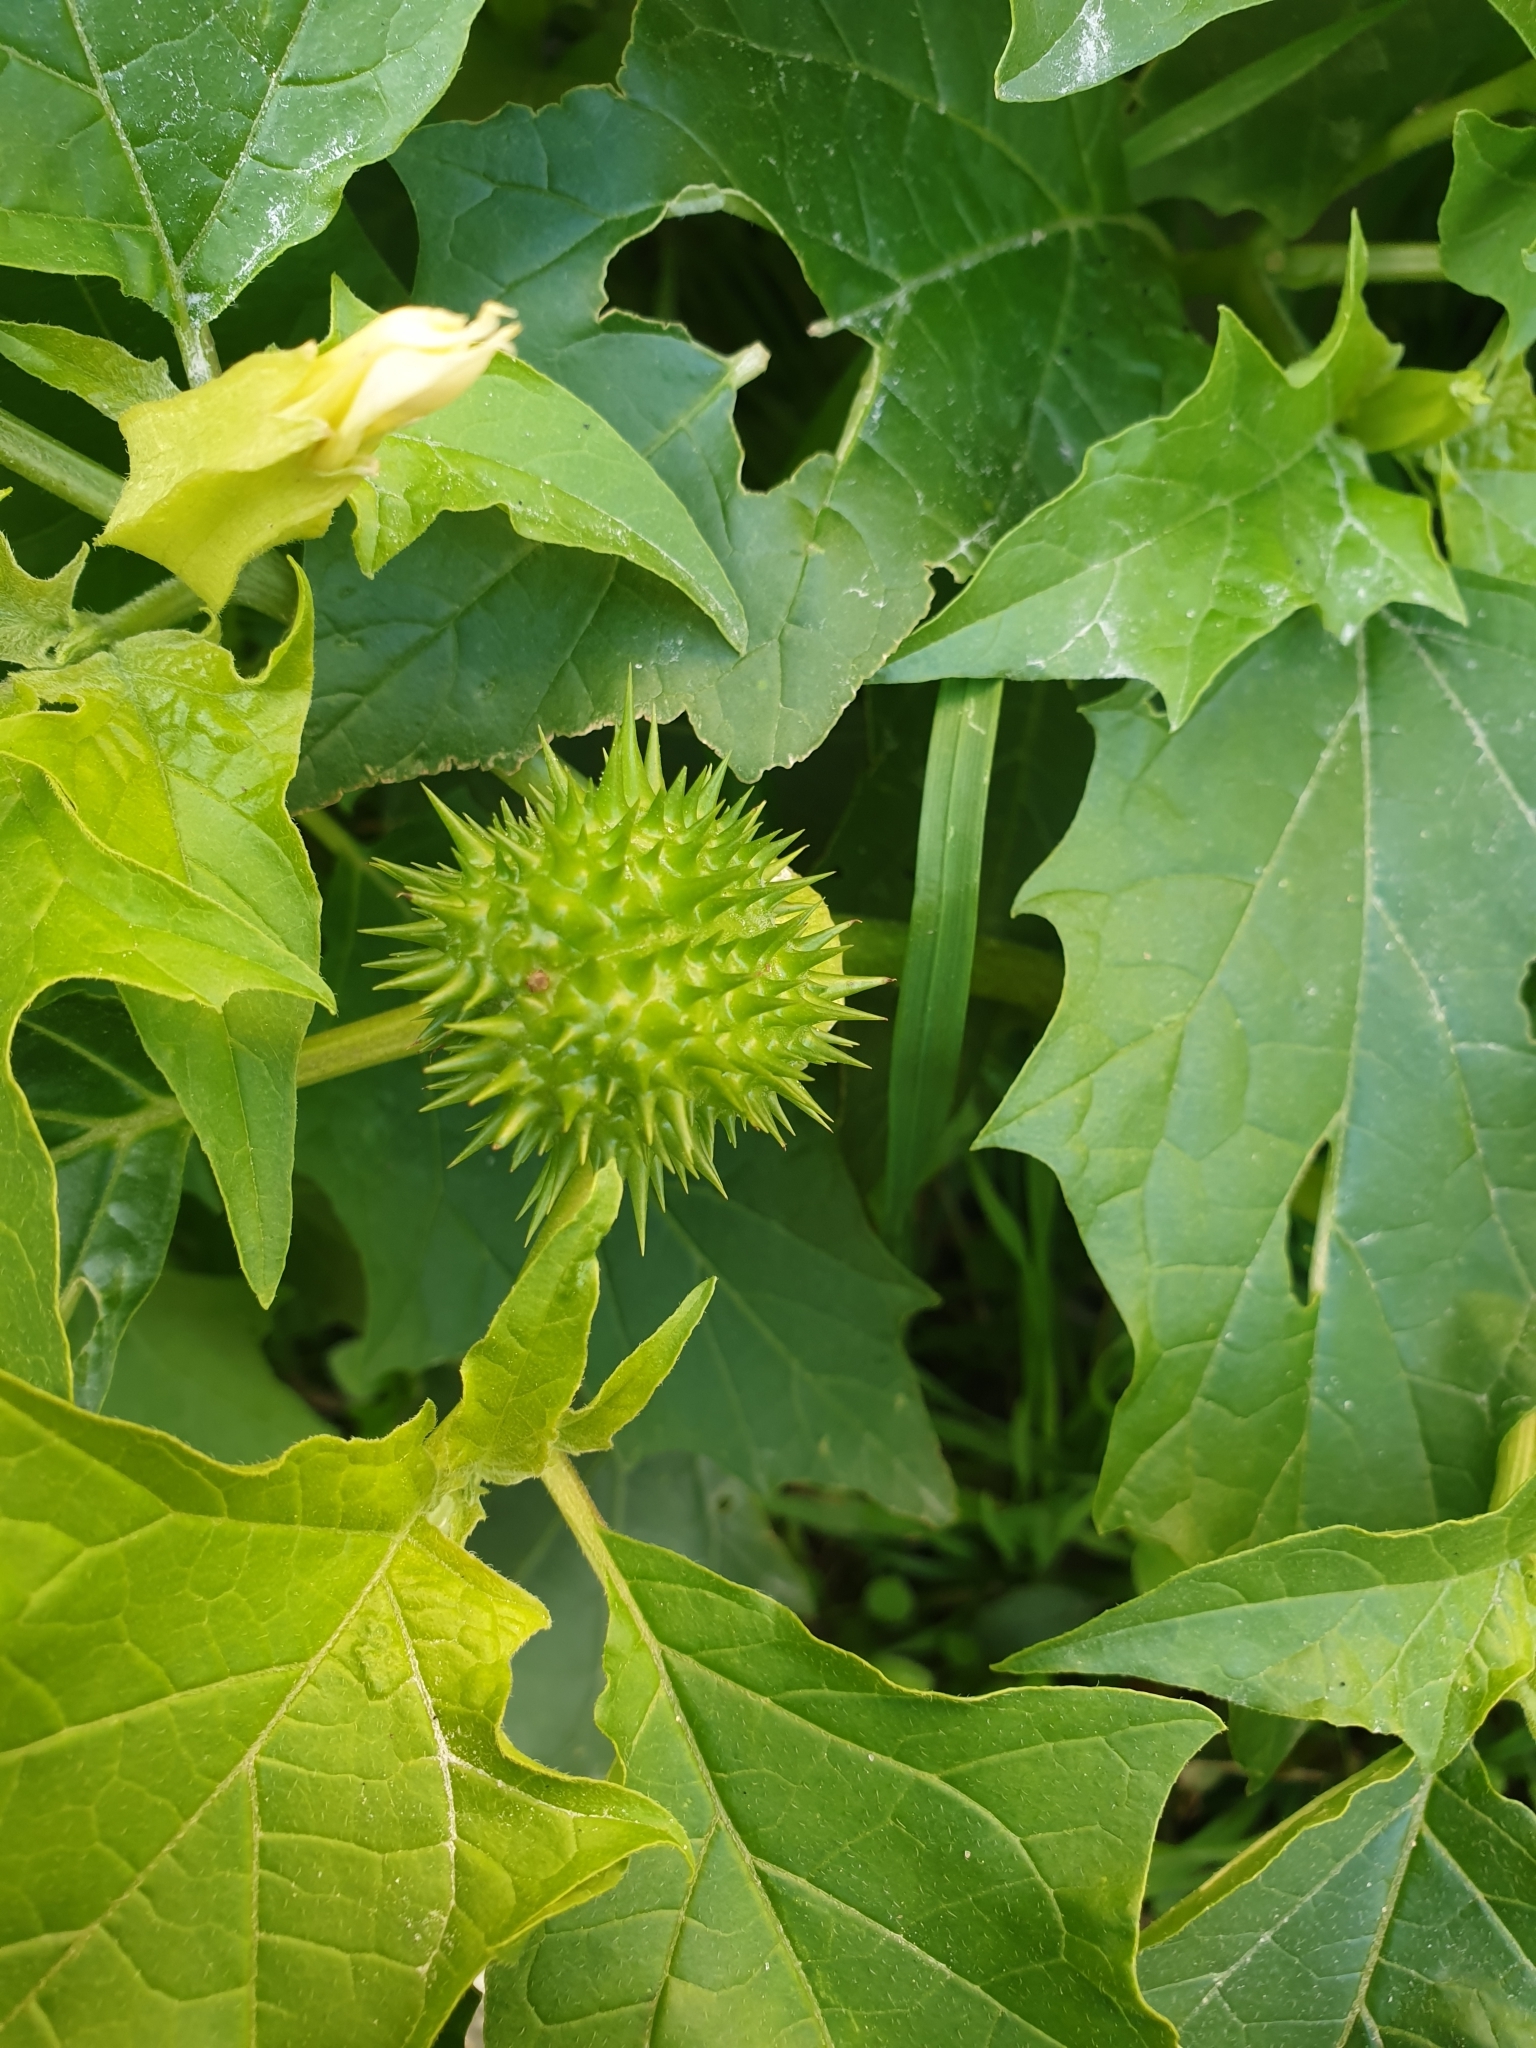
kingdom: Plantae
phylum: Tracheophyta
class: Magnoliopsida
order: Solanales
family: Solanaceae
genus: Datura
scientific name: Datura stramonium
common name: Thorn-apple
